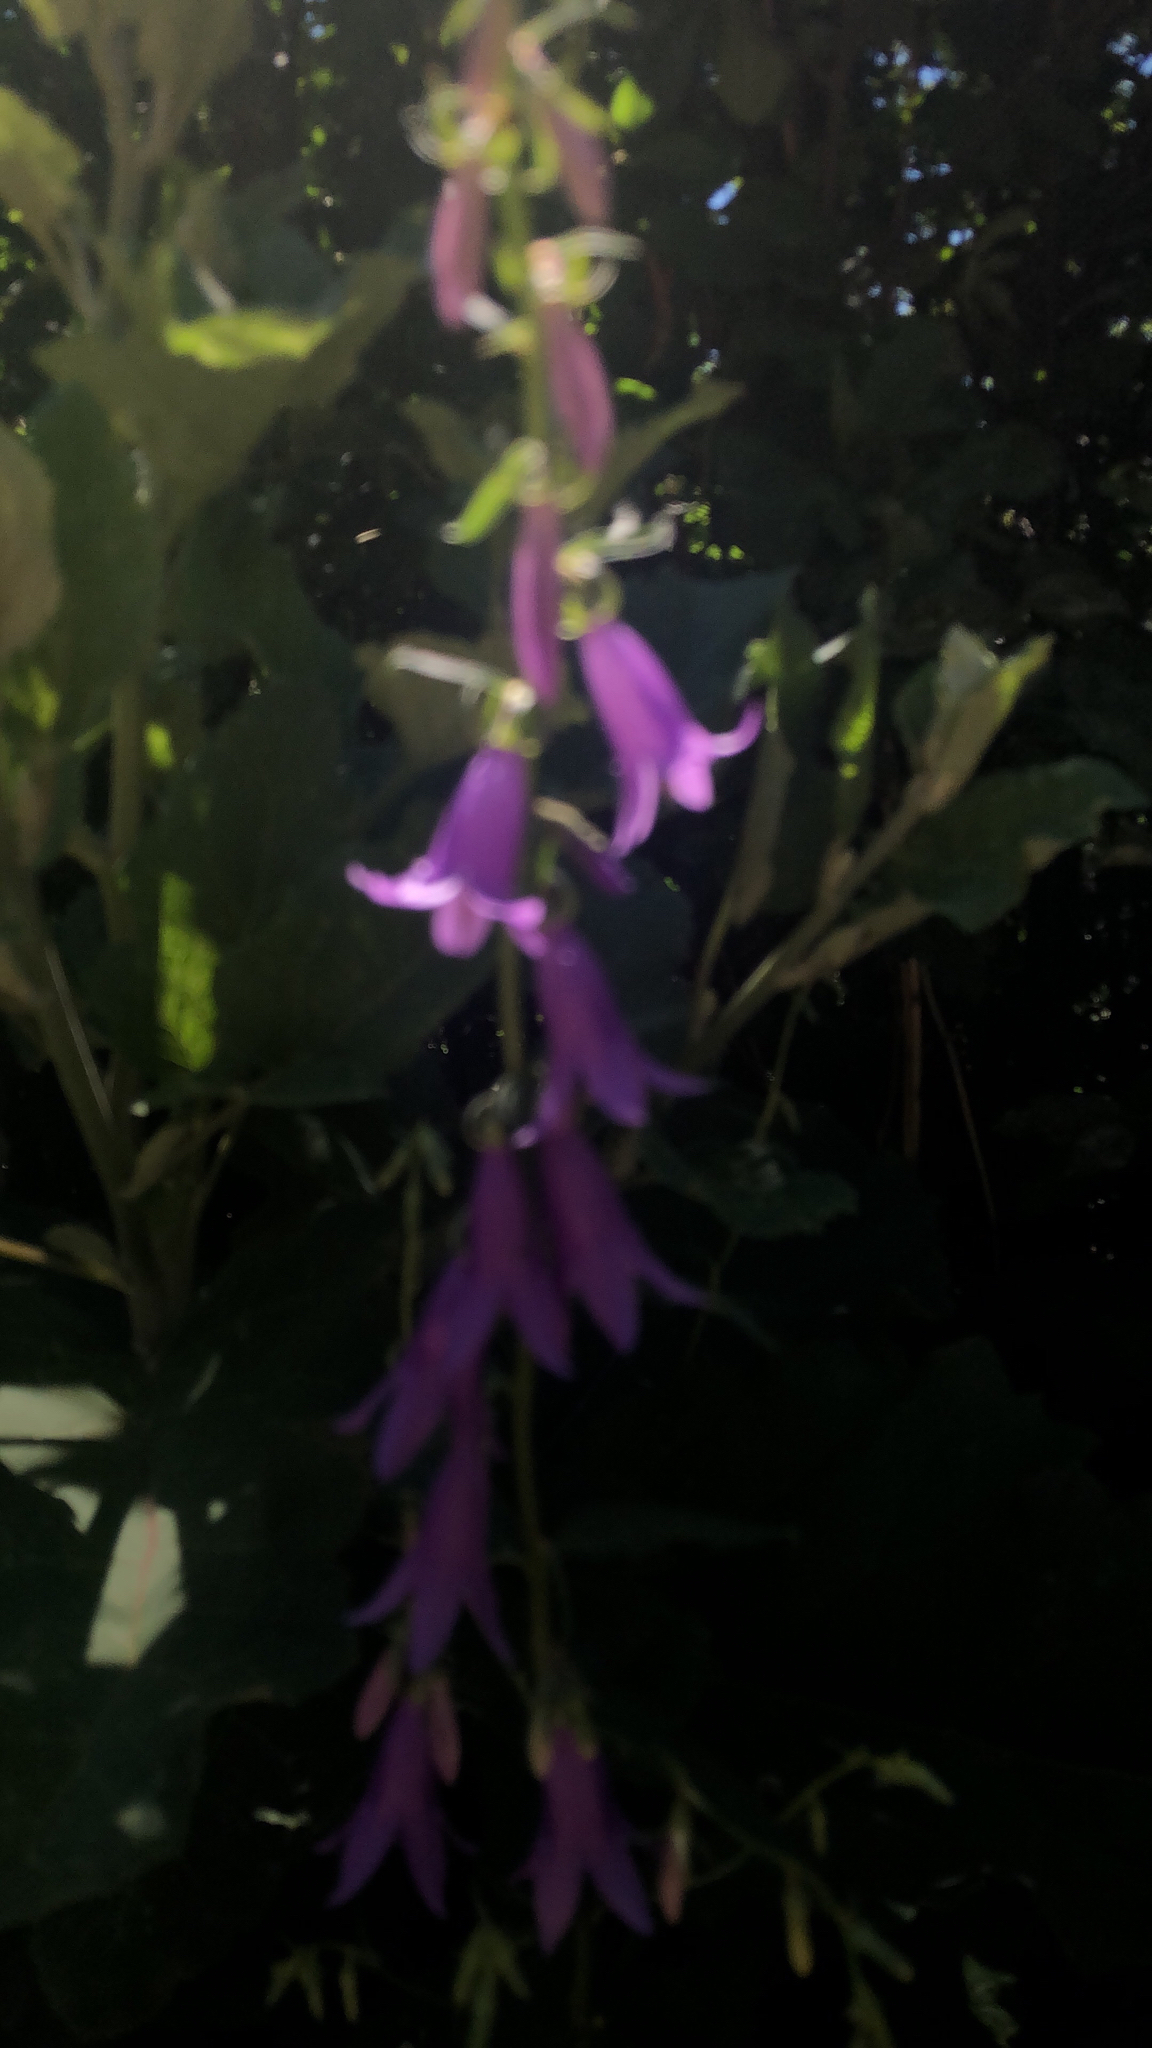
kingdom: Plantae
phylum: Tracheophyta
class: Magnoliopsida
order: Asterales
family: Campanulaceae
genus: Campanula
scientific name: Campanula rapunculoides
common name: Creeping bellflower
